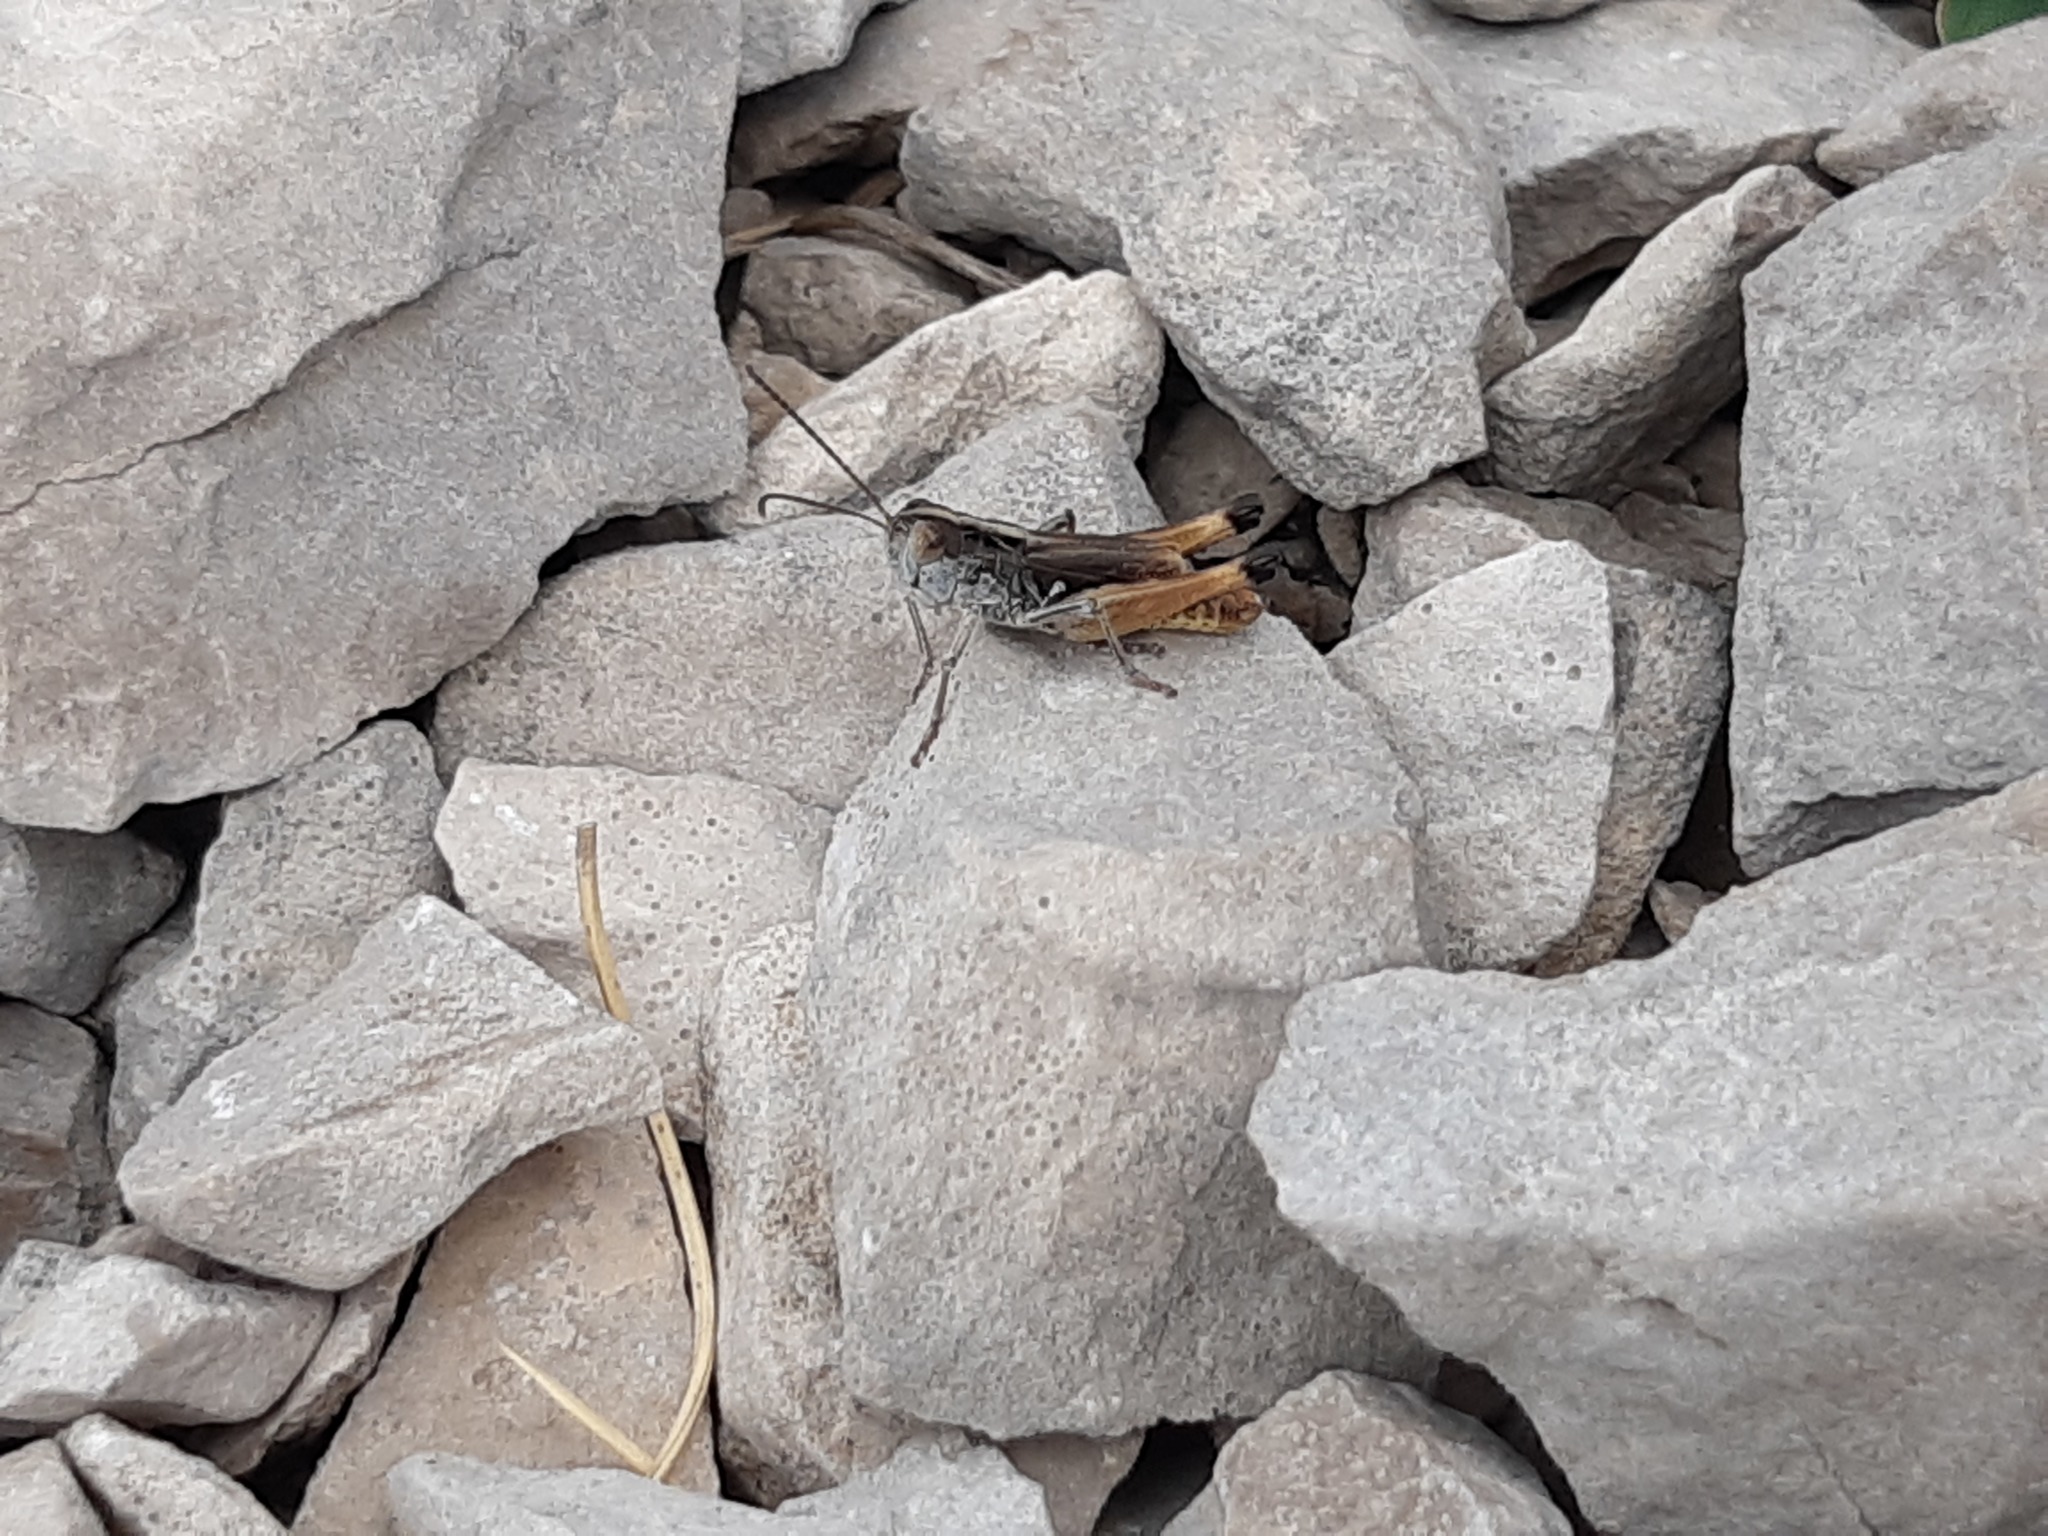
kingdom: Animalia
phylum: Arthropoda
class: Insecta
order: Orthoptera
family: Acrididae
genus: Rammeihippus
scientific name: Rammeihippus dinaricus
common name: Dinarian grasshopper
